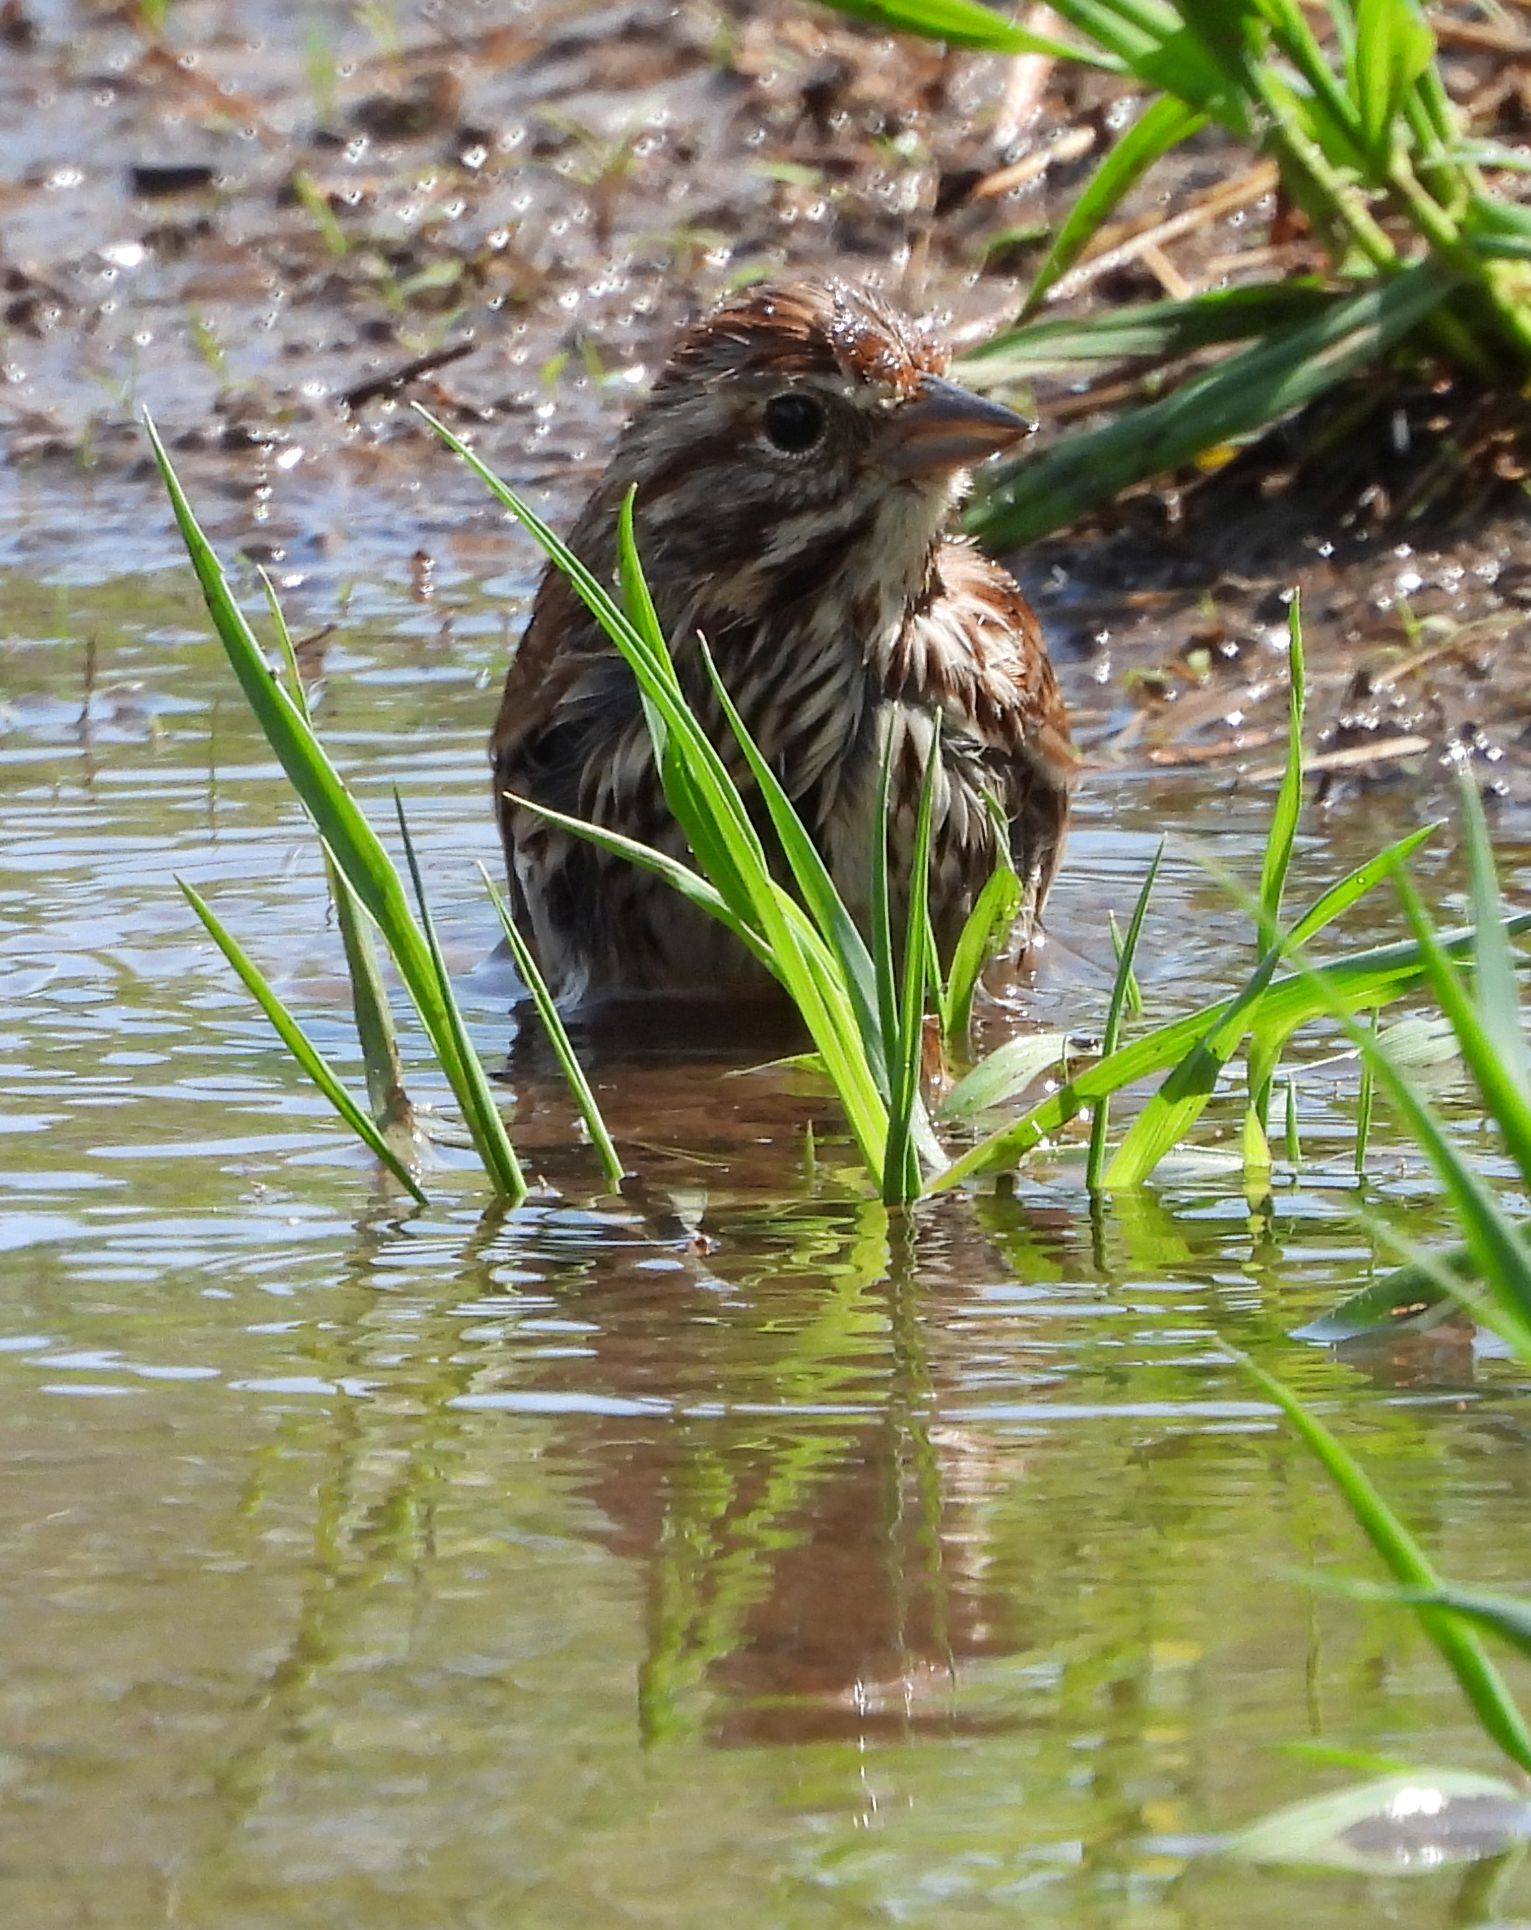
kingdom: Animalia
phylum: Chordata
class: Aves
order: Passeriformes
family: Passerellidae
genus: Melospiza
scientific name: Melospiza melodia
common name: Song sparrow
